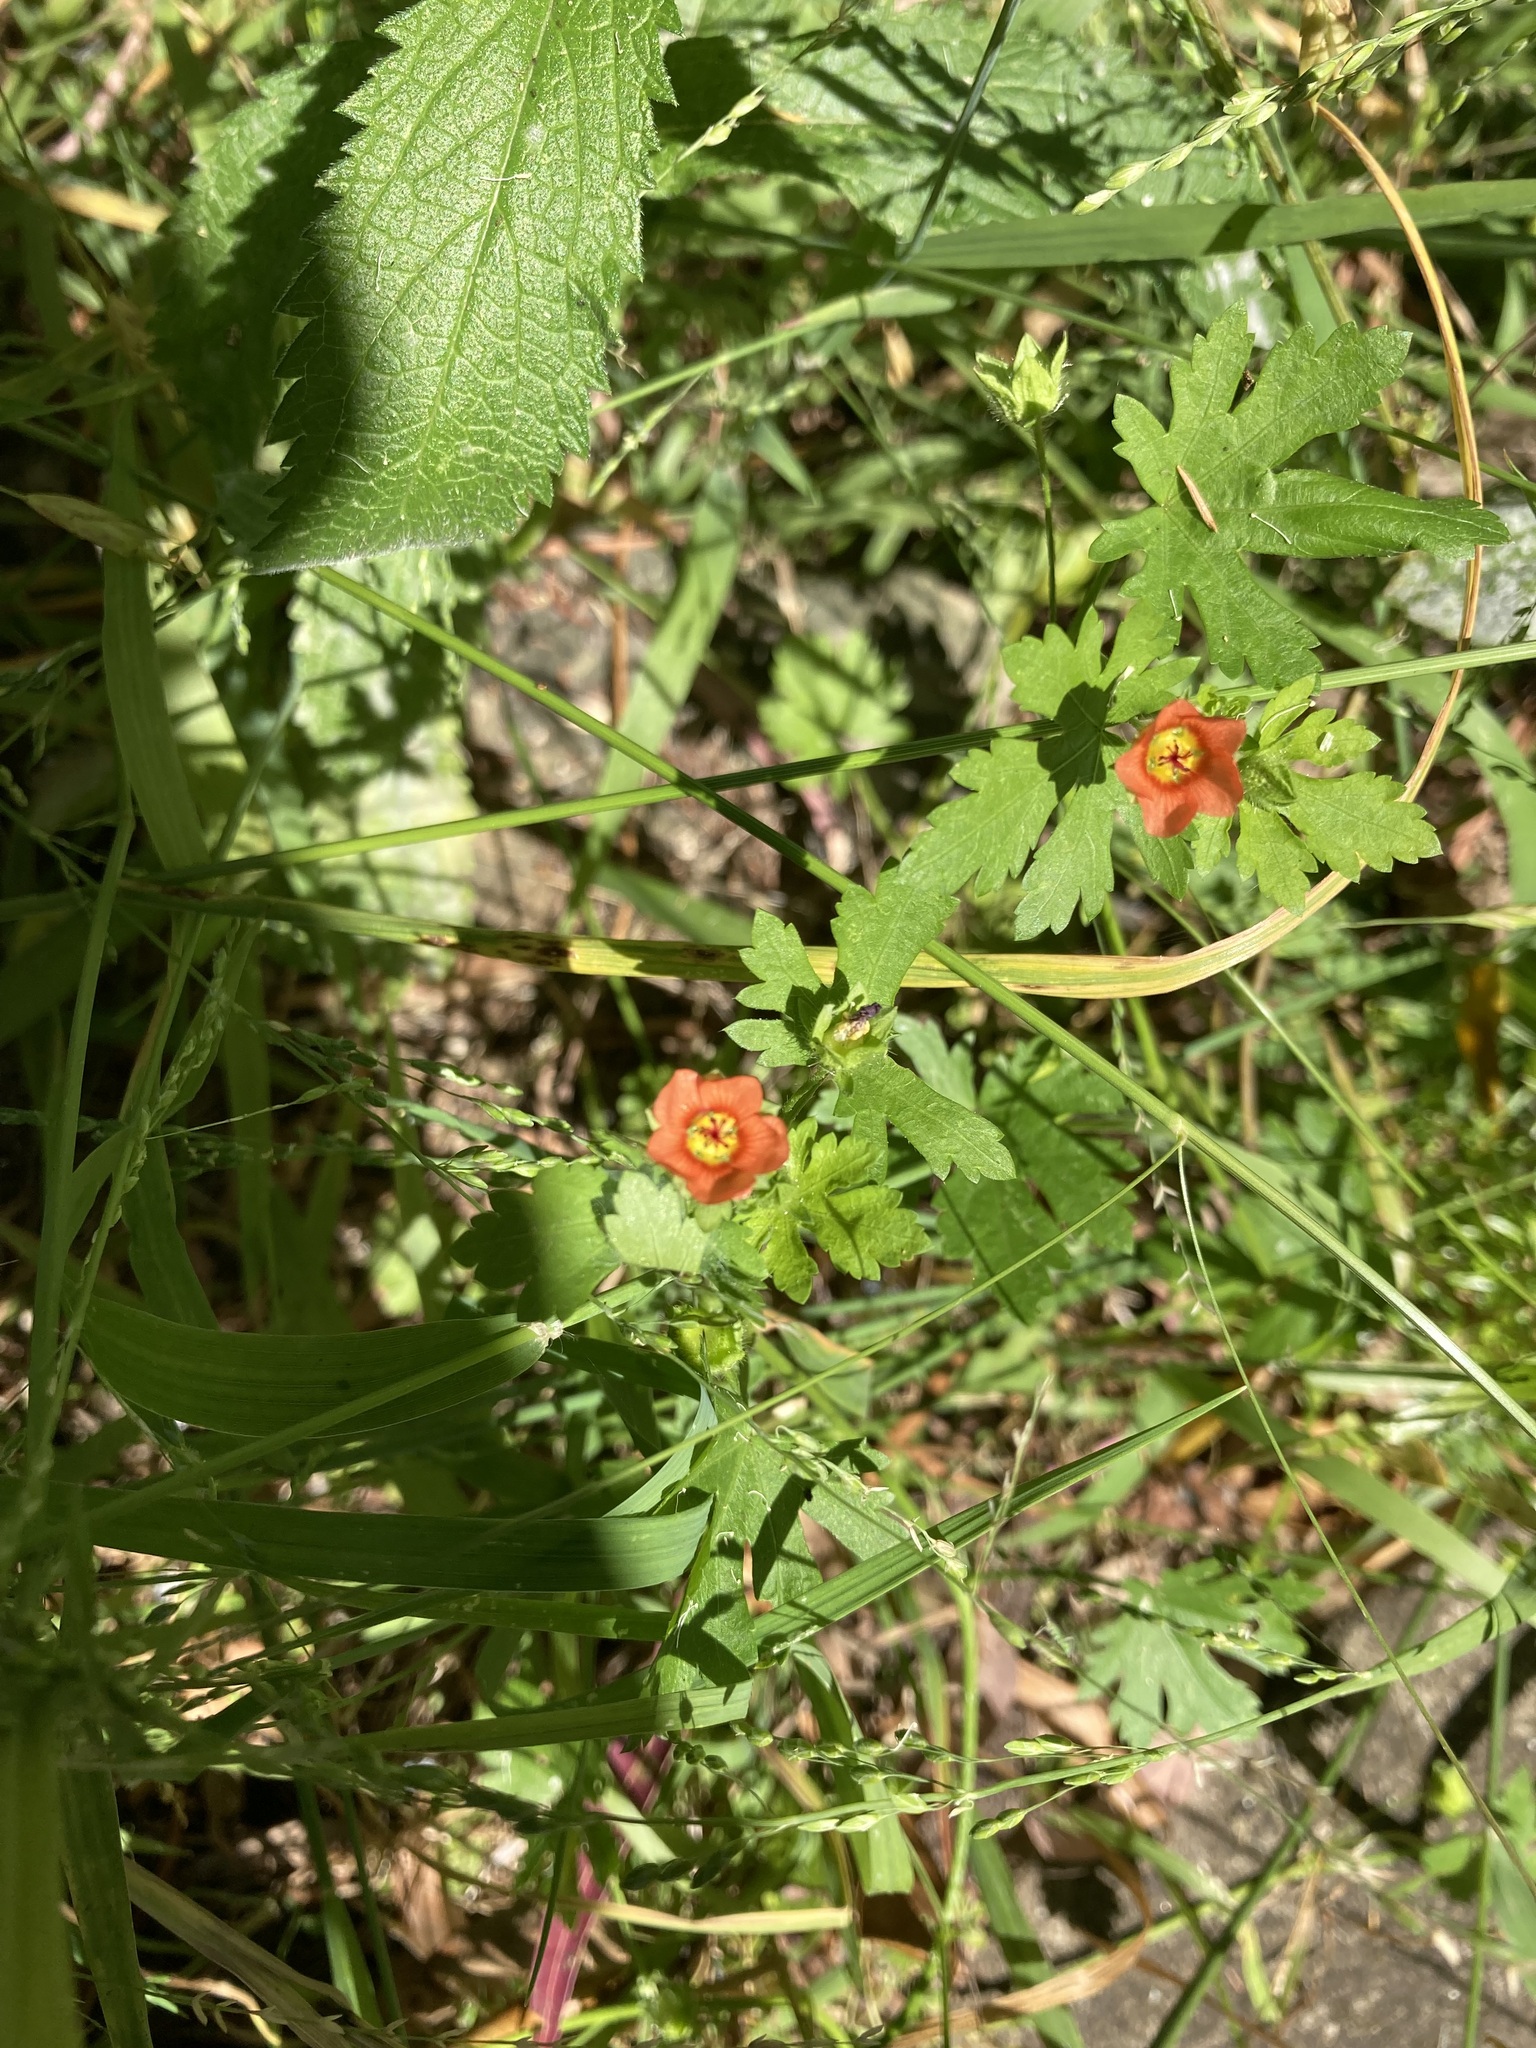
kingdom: Plantae
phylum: Tracheophyta
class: Magnoliopsida
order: Malvales
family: Malvaceae
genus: Modiola
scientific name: Modiola caroliniana
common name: Carolina bristlemallow
